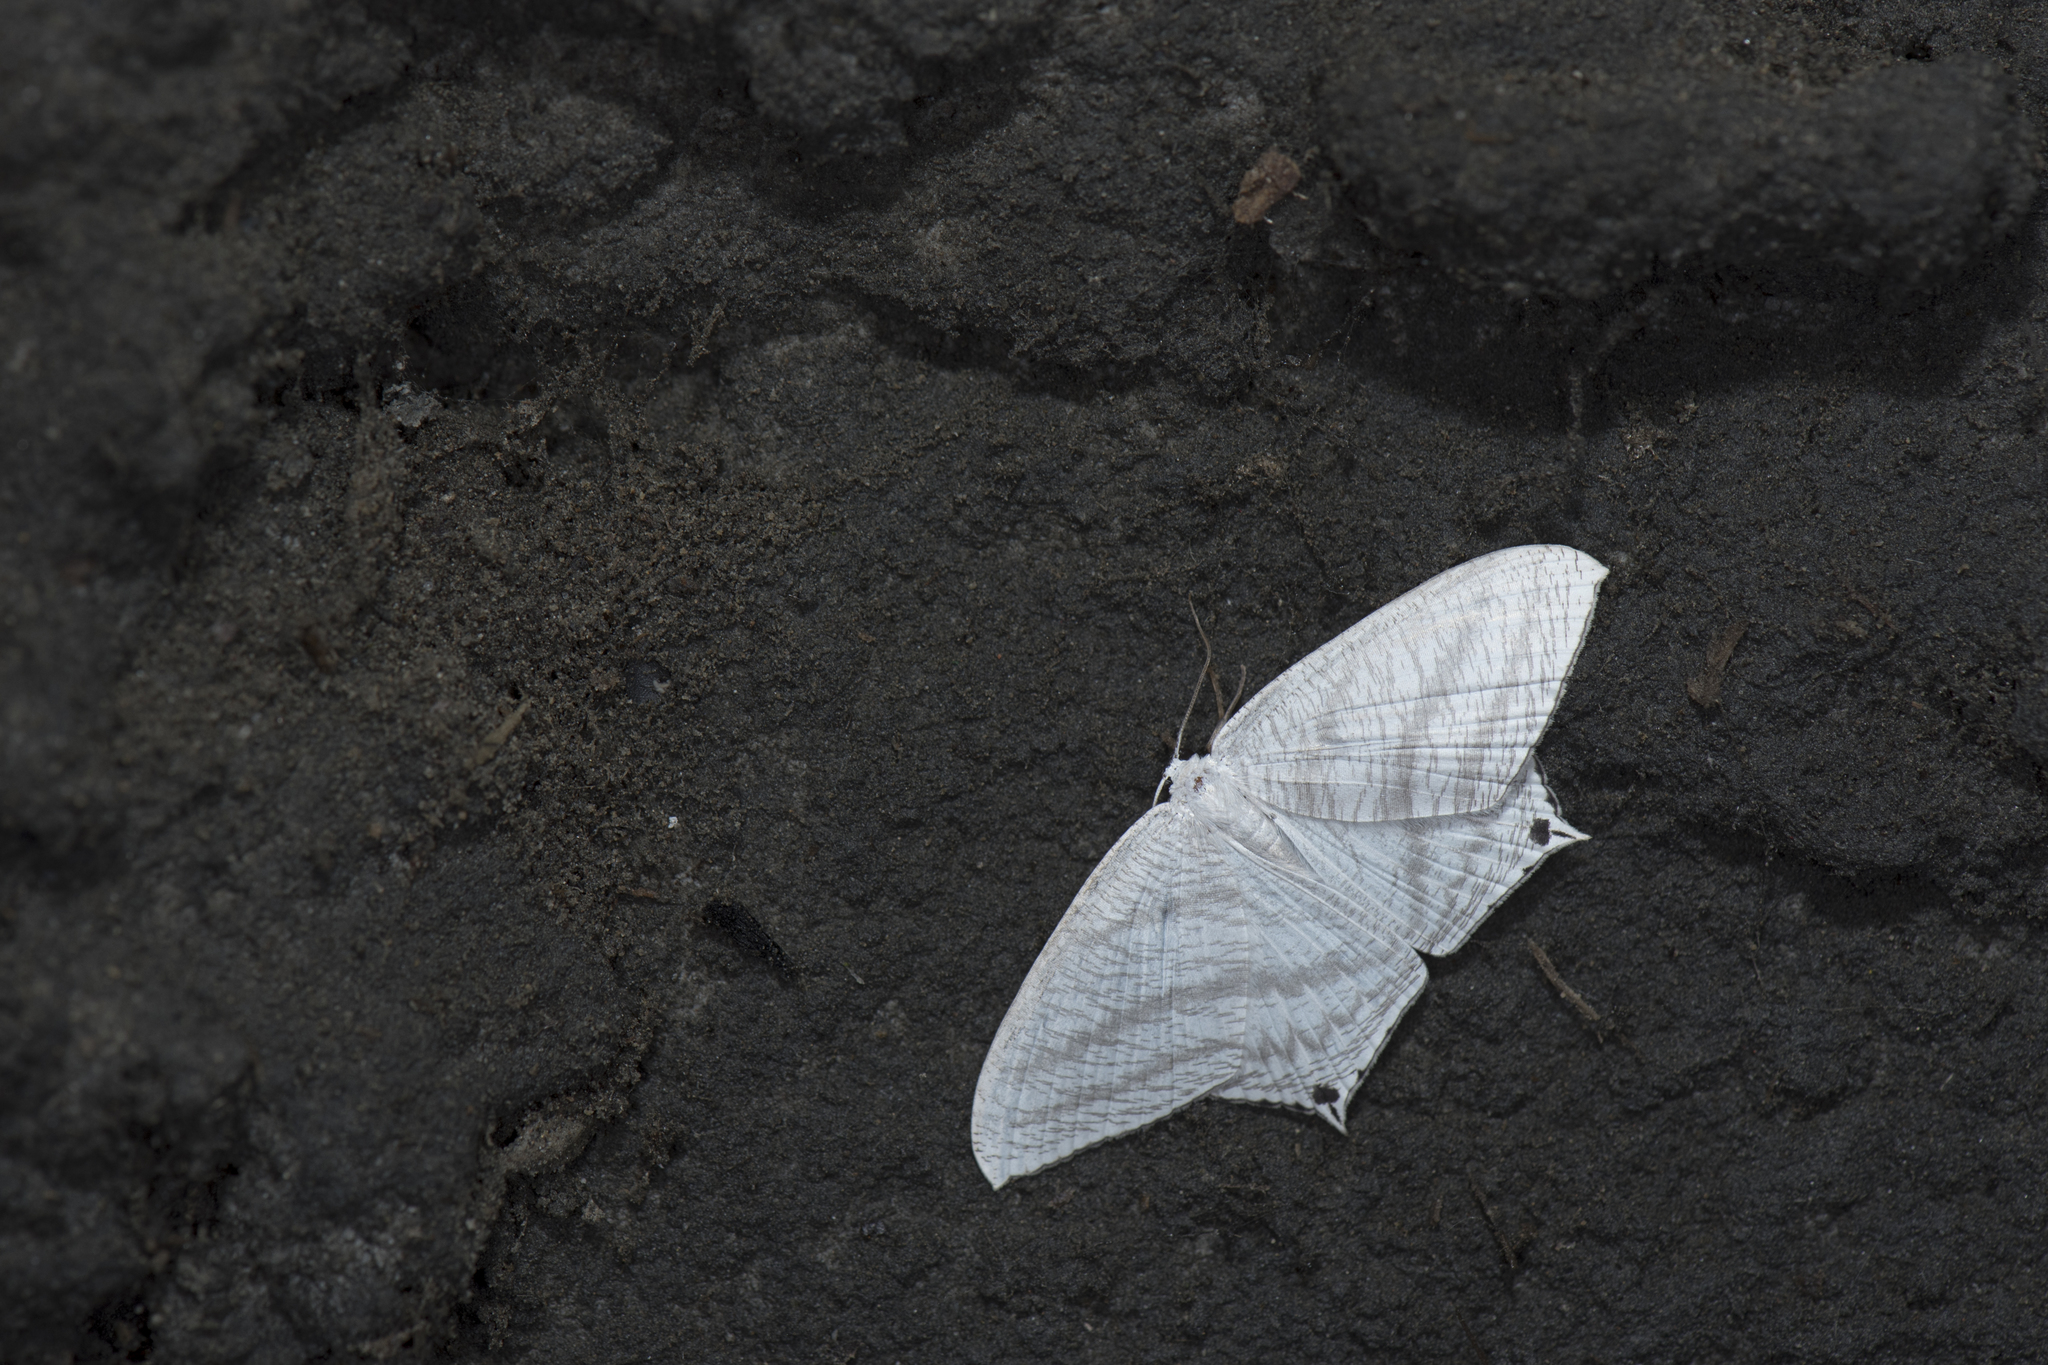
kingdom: Animalia
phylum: Arthropoda
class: Insecta
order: Lepidoptera
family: Uraniidae
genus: Micronia
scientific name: Micronia aculeata
